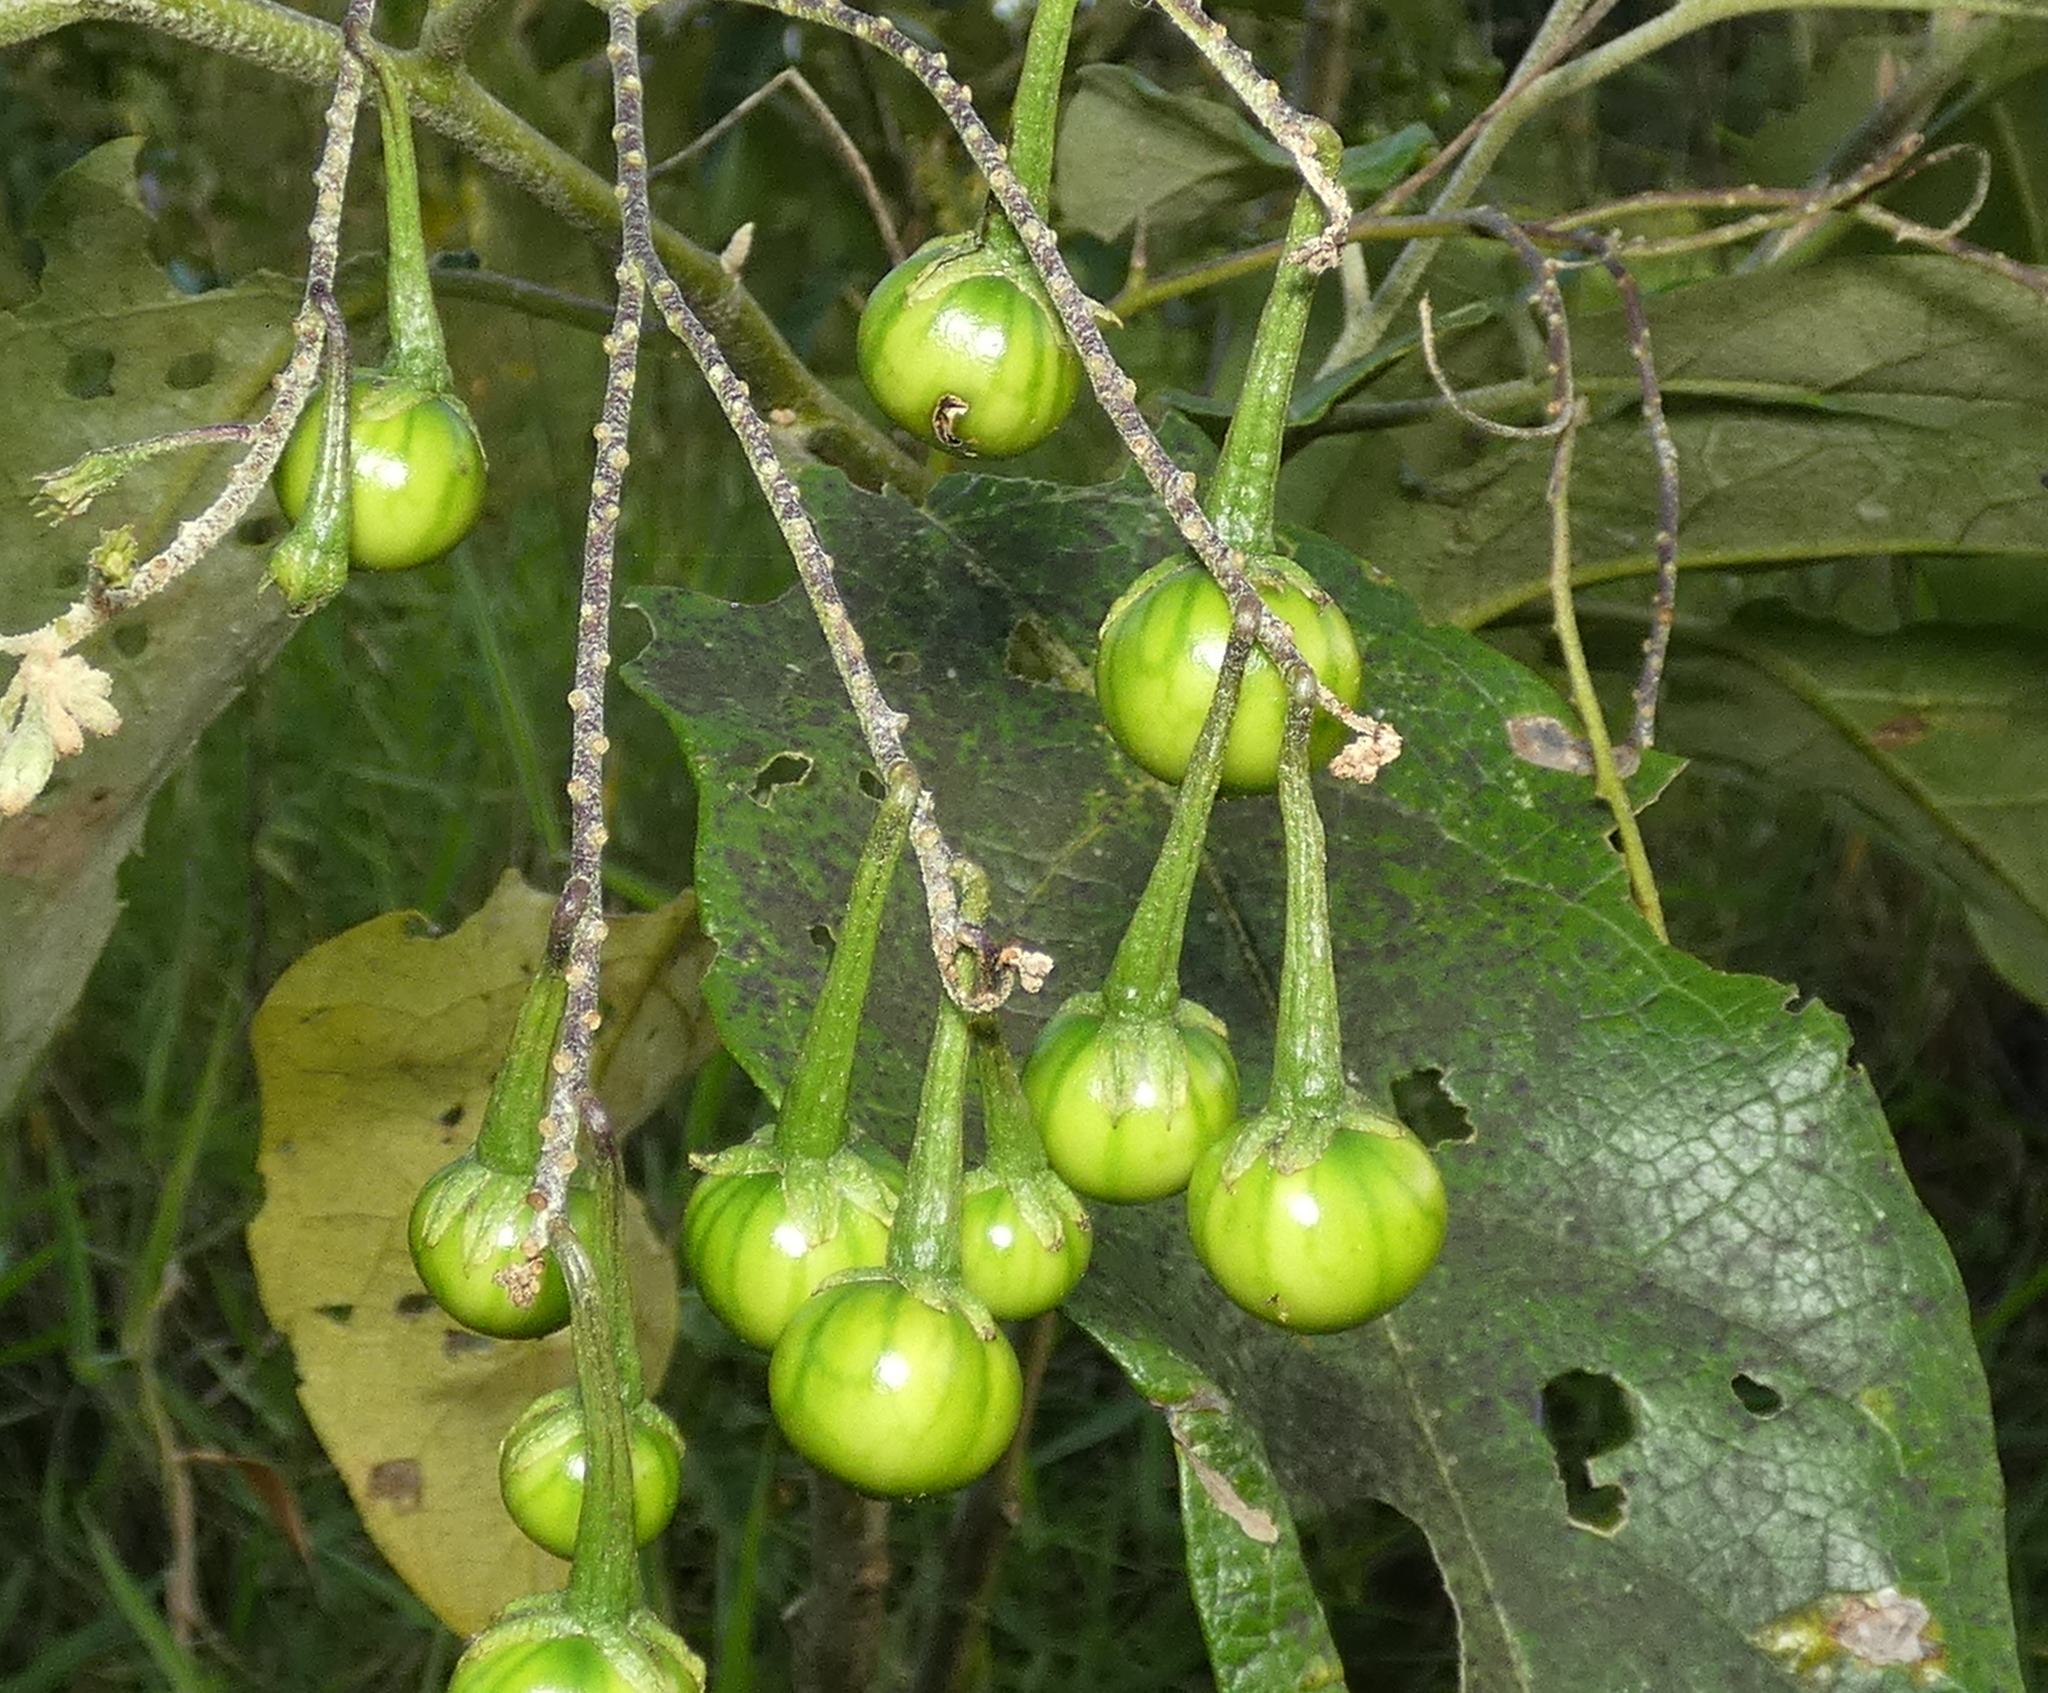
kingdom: Plantae
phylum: Tracheophyta
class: Magnoliopsida
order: Solanales
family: Solanaceae
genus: Solanum
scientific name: Solanum paniculatum
